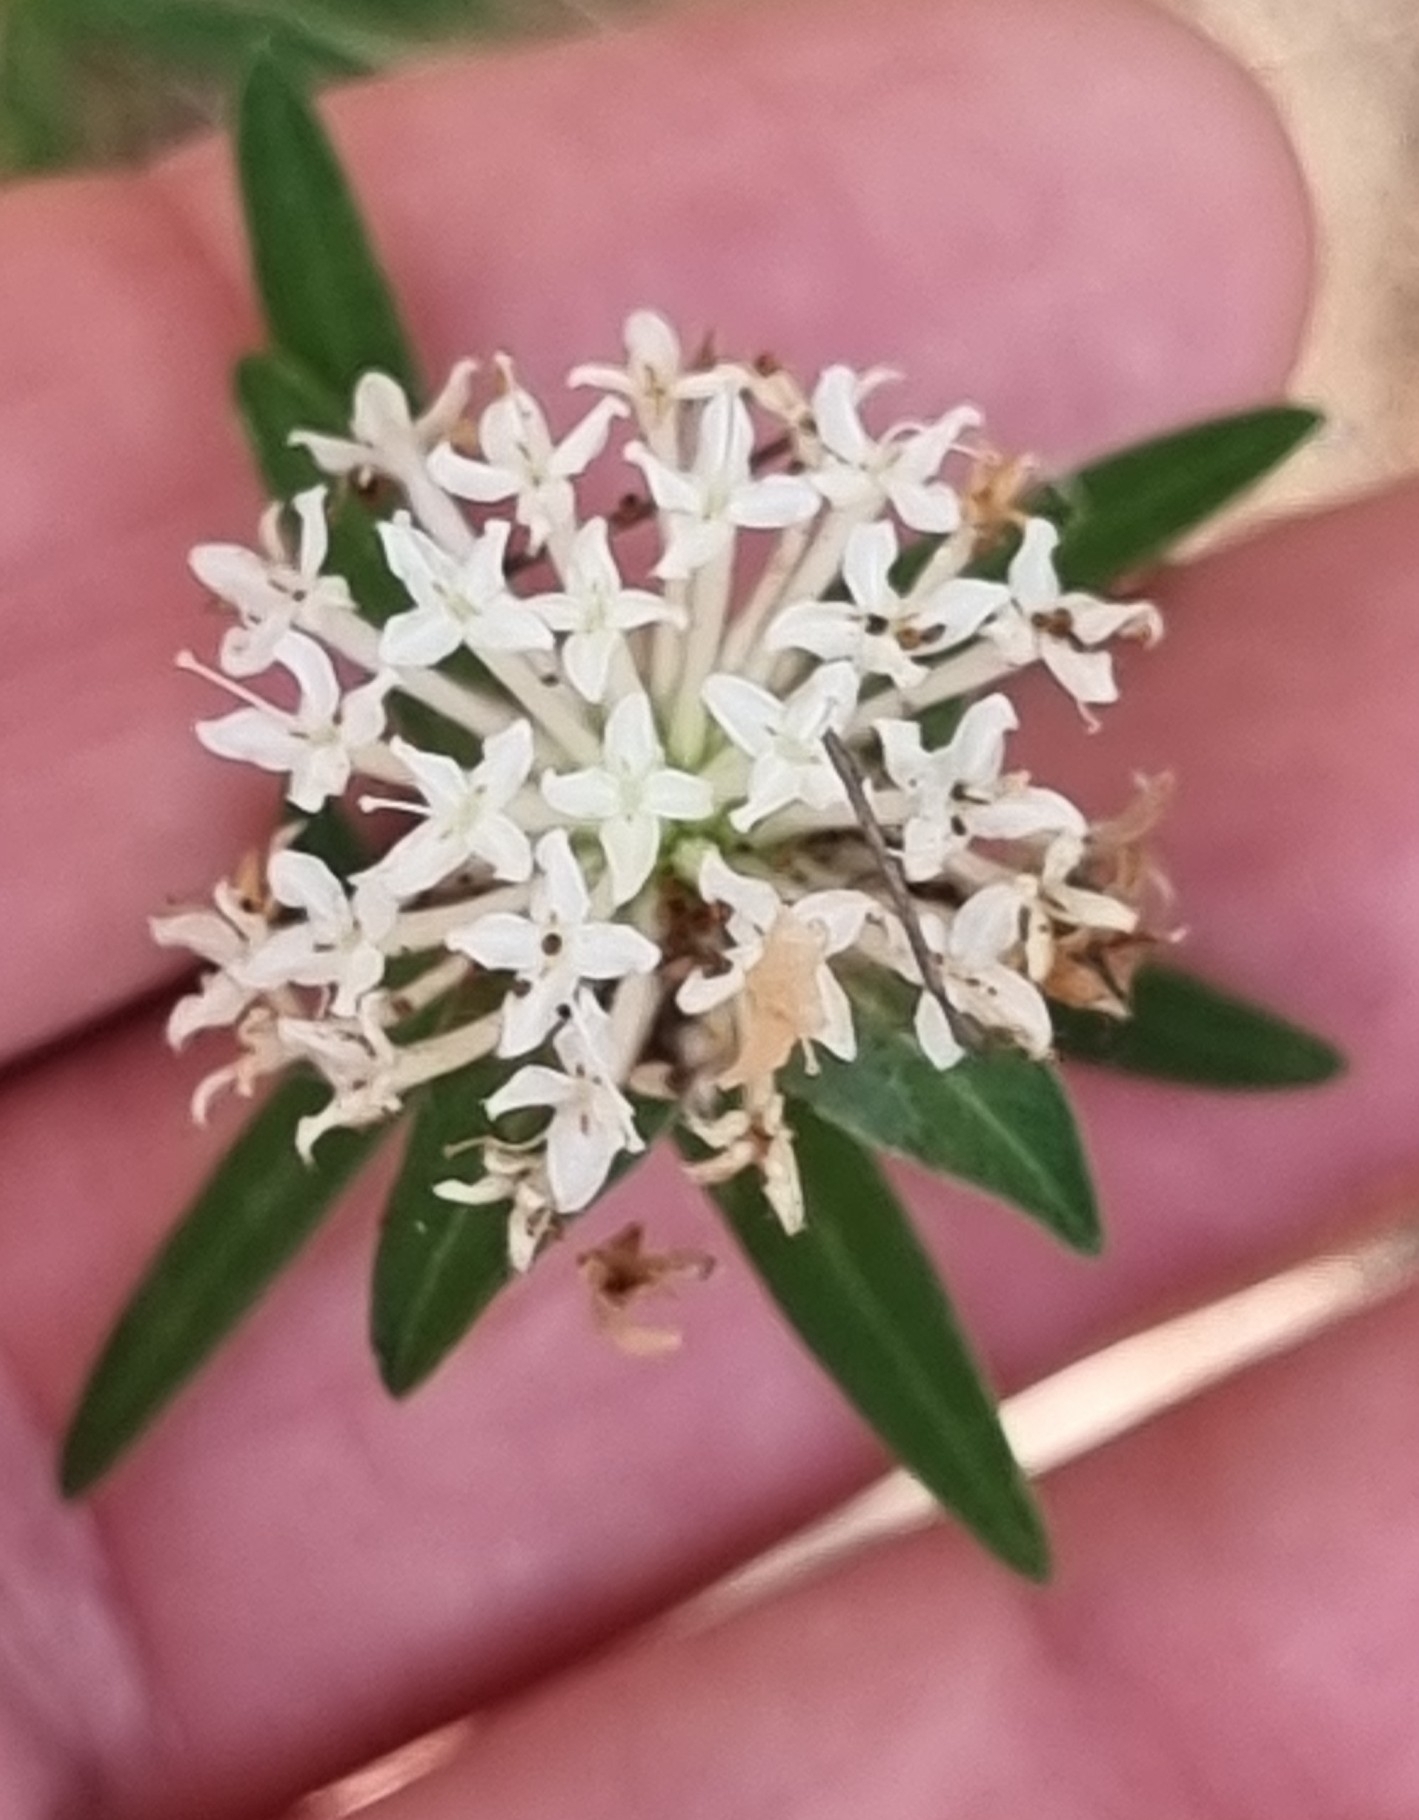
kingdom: Plantae
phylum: Tracheophyta
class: Magnoliopsida
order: Malvales
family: Thymelaeaceae
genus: Pimelea
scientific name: Pimelea linifolia
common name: Queen-of-the-bush
